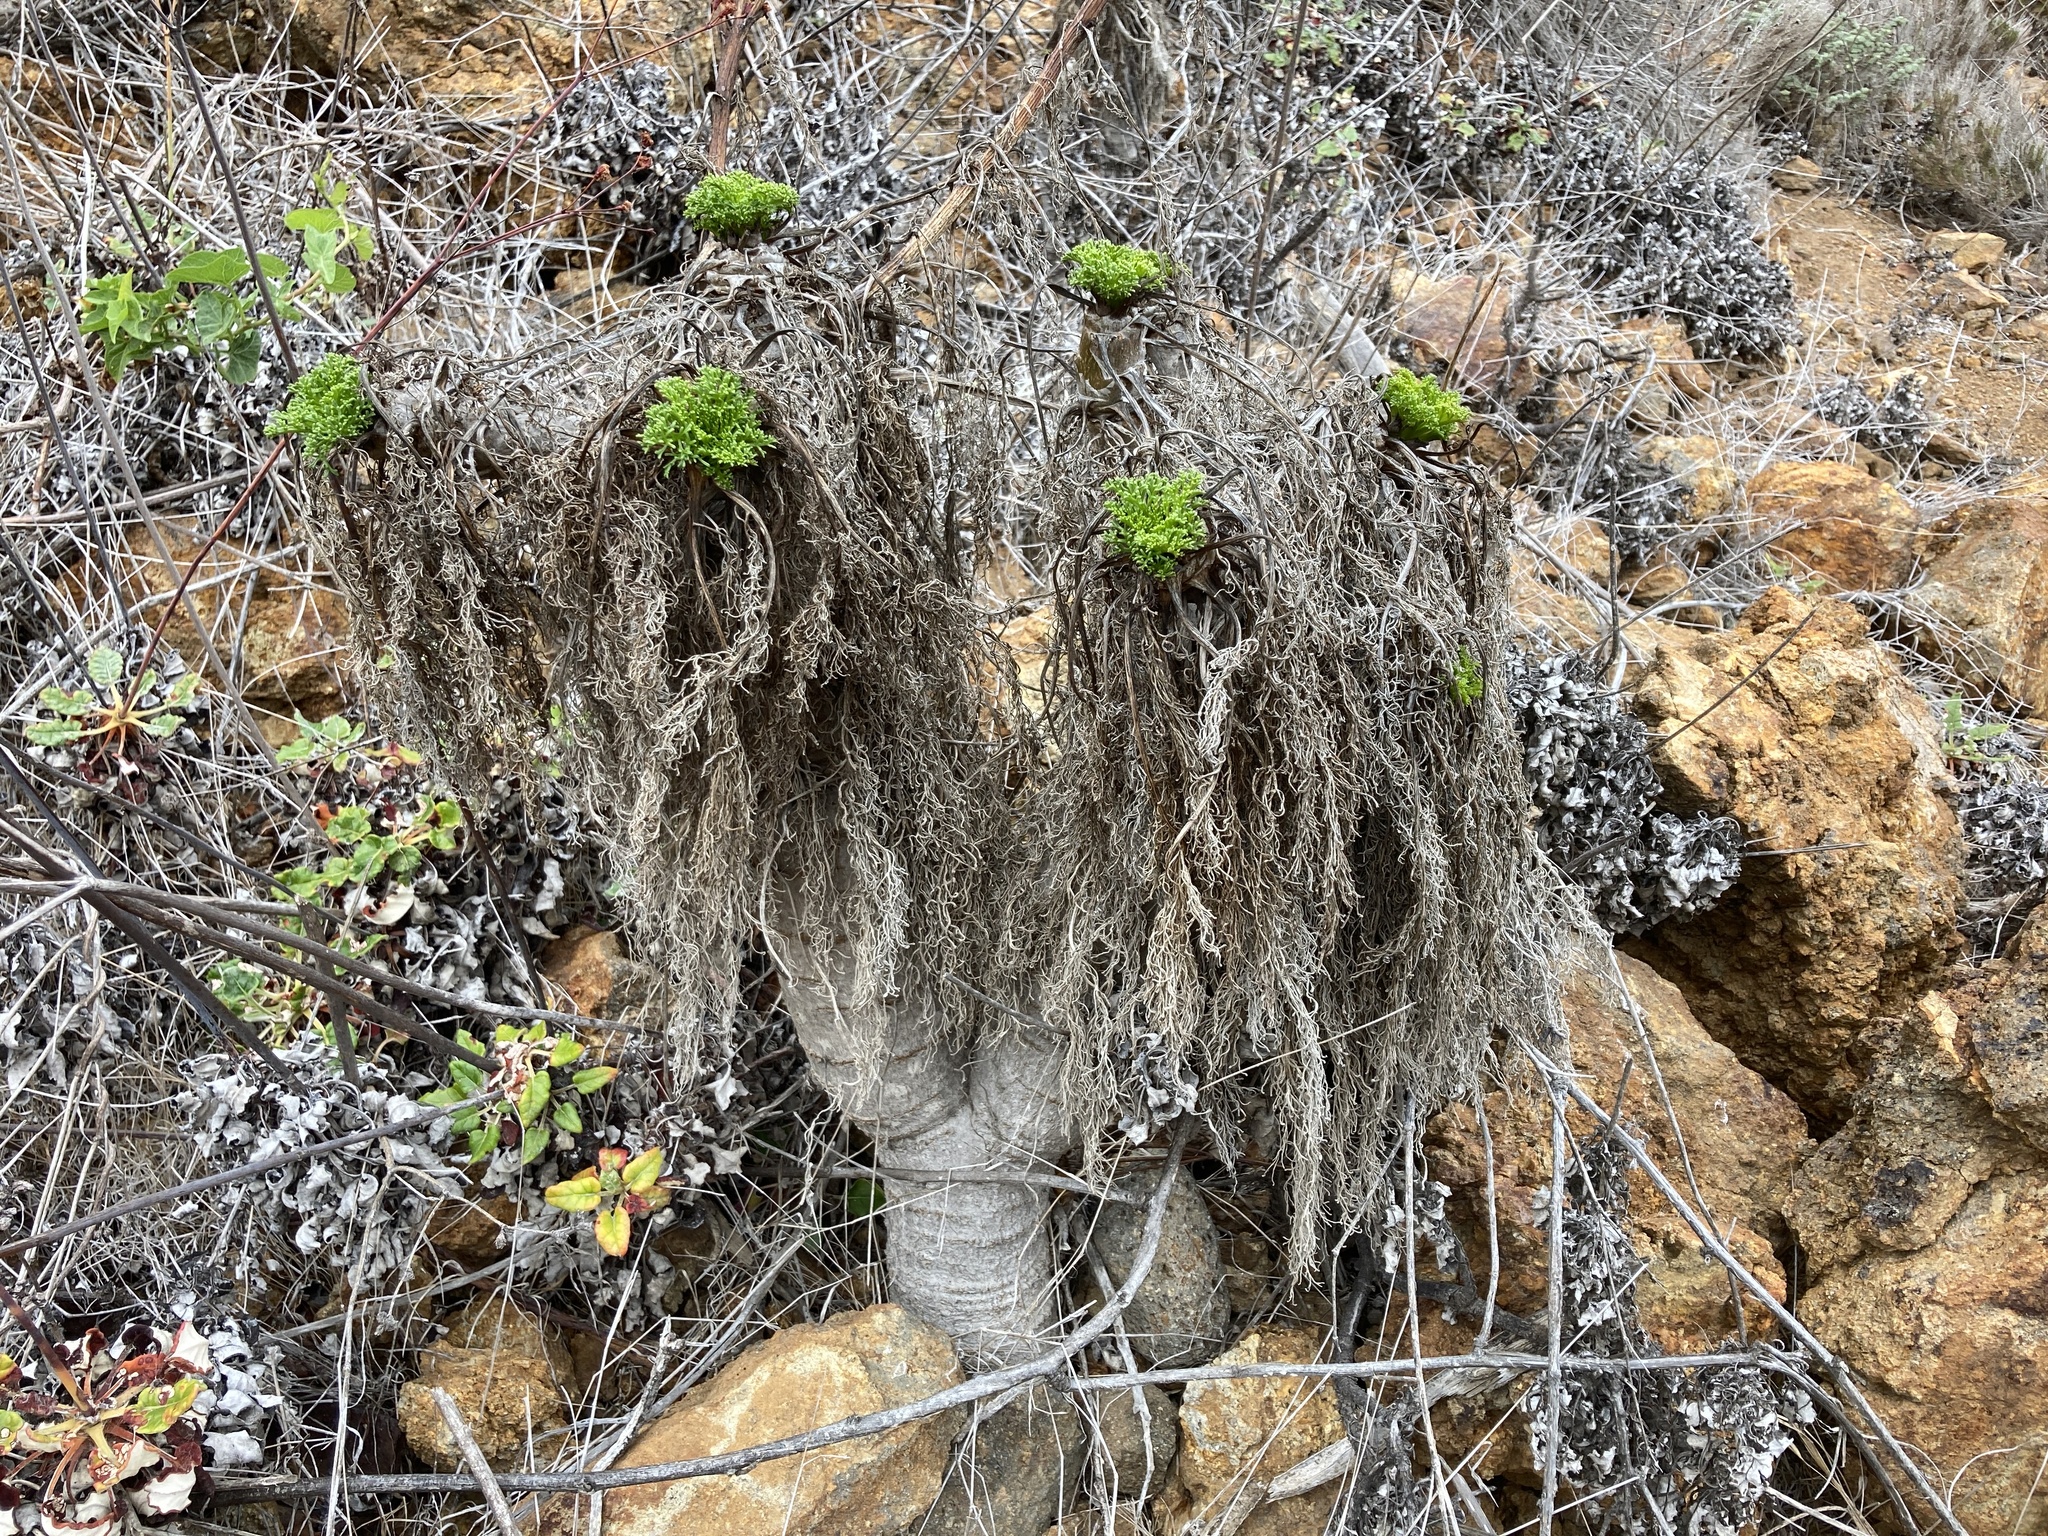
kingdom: Plantae
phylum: Tracheophyta
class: Magnoliopsida
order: Asterales
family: Asteraceae
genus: Coreopsis
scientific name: Coreopsis gigantea
